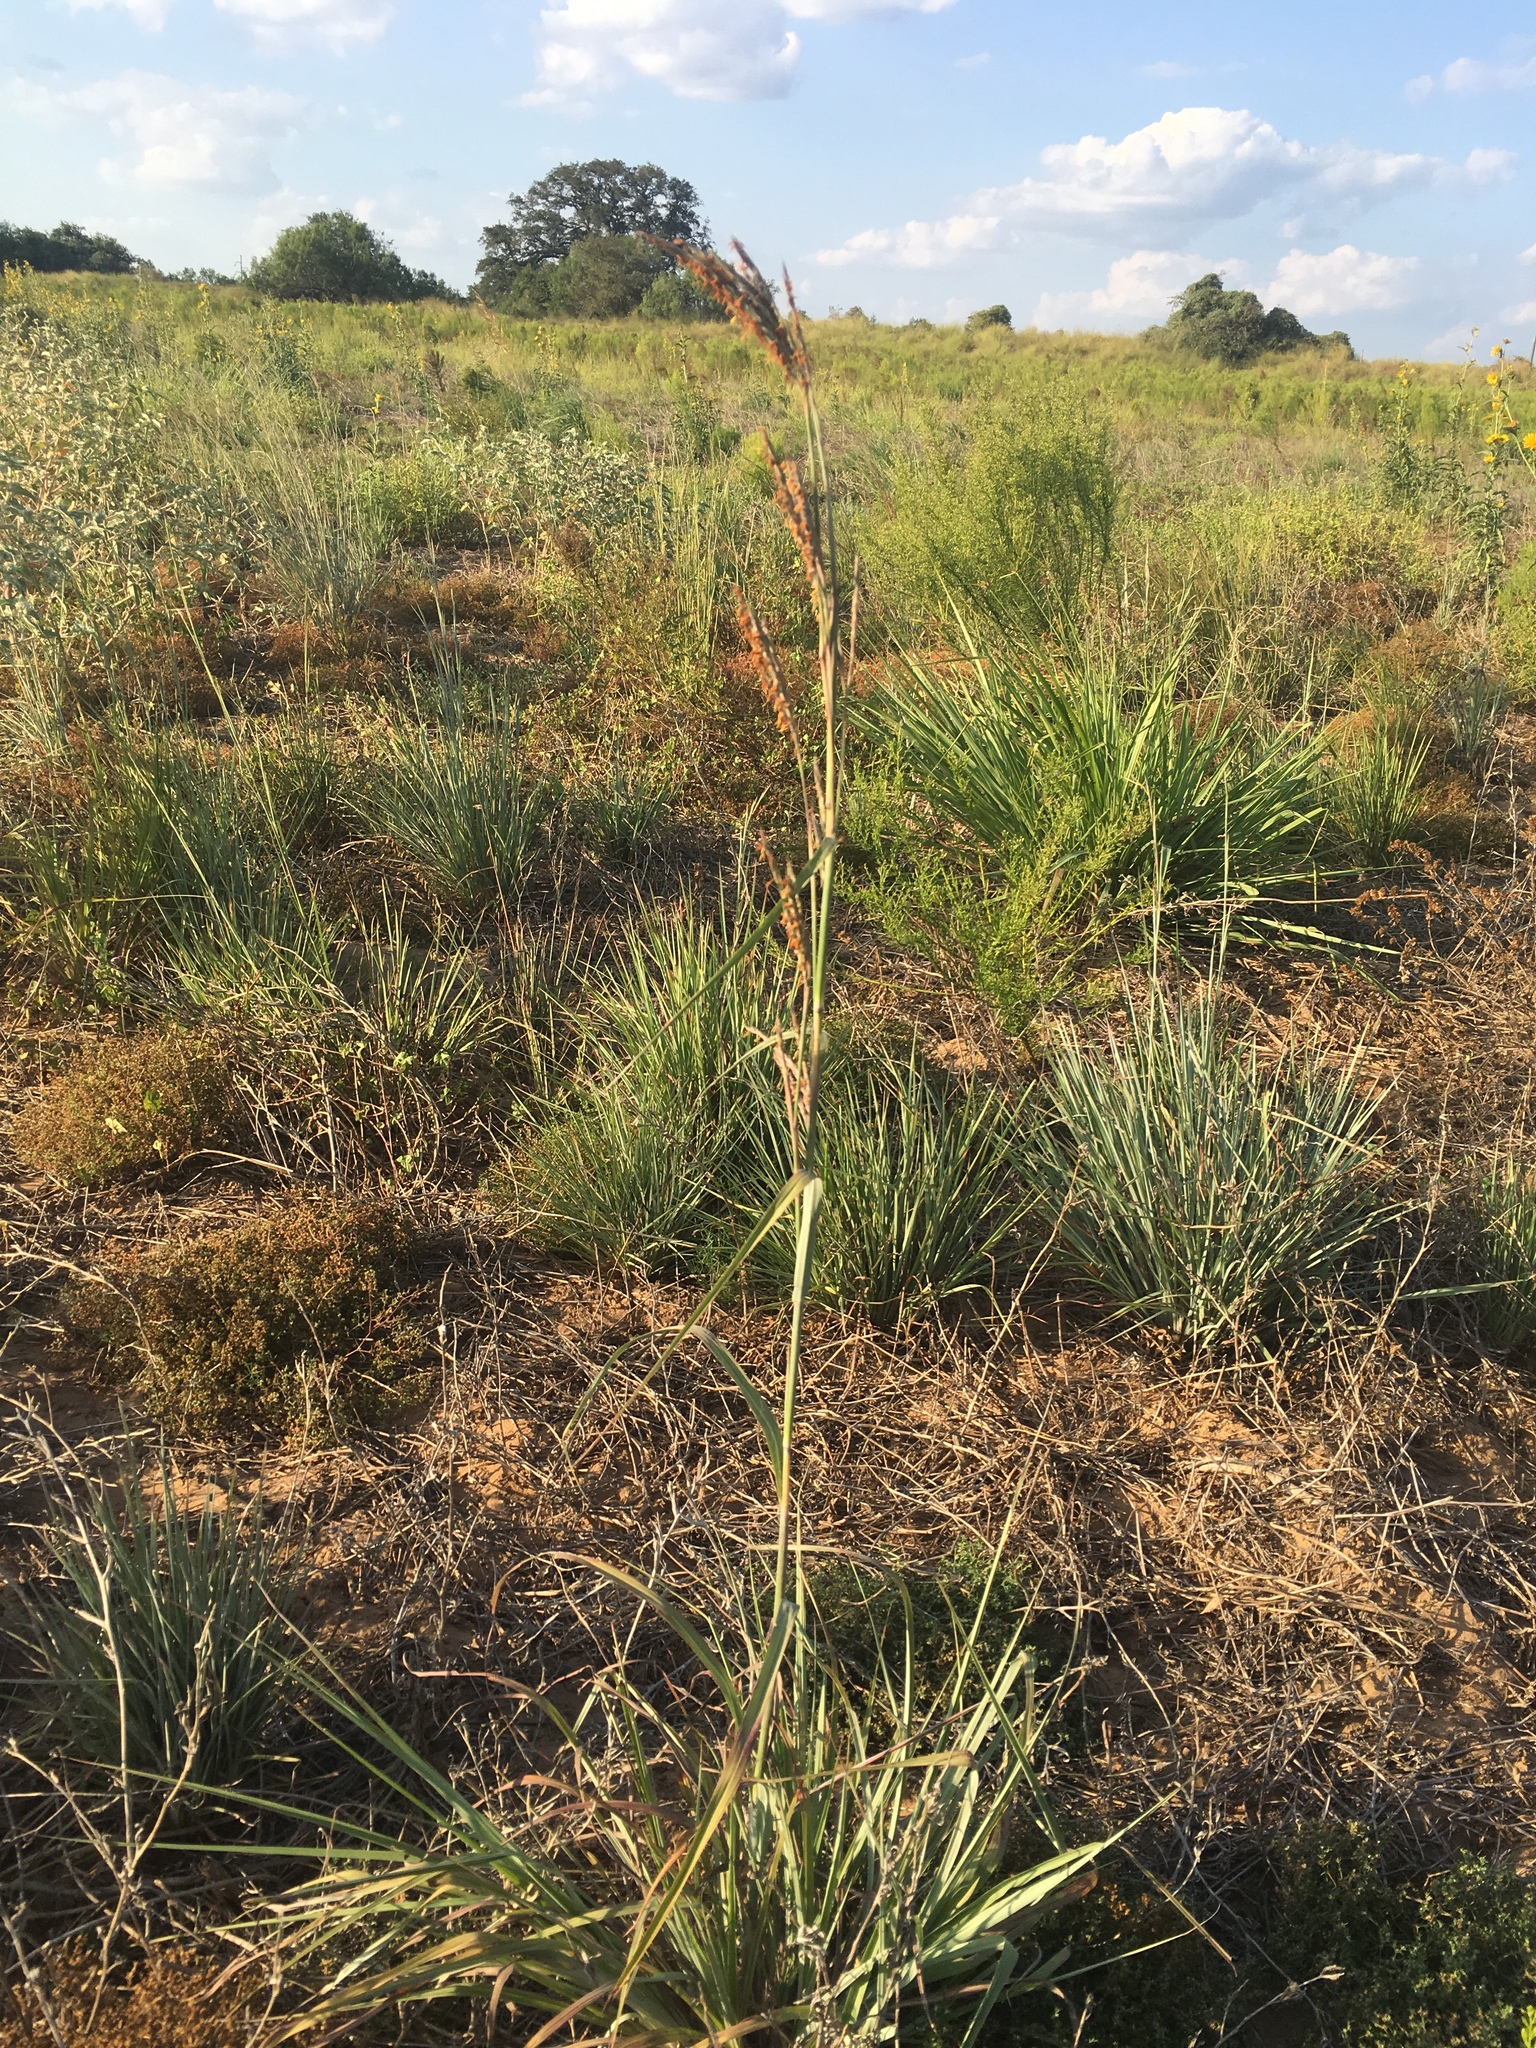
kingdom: Plantae
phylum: Tracheophyta
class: Liliopsida
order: Poales
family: Poaceae
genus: Andropogon
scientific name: Andropogon gerardi
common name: Big bluestem
